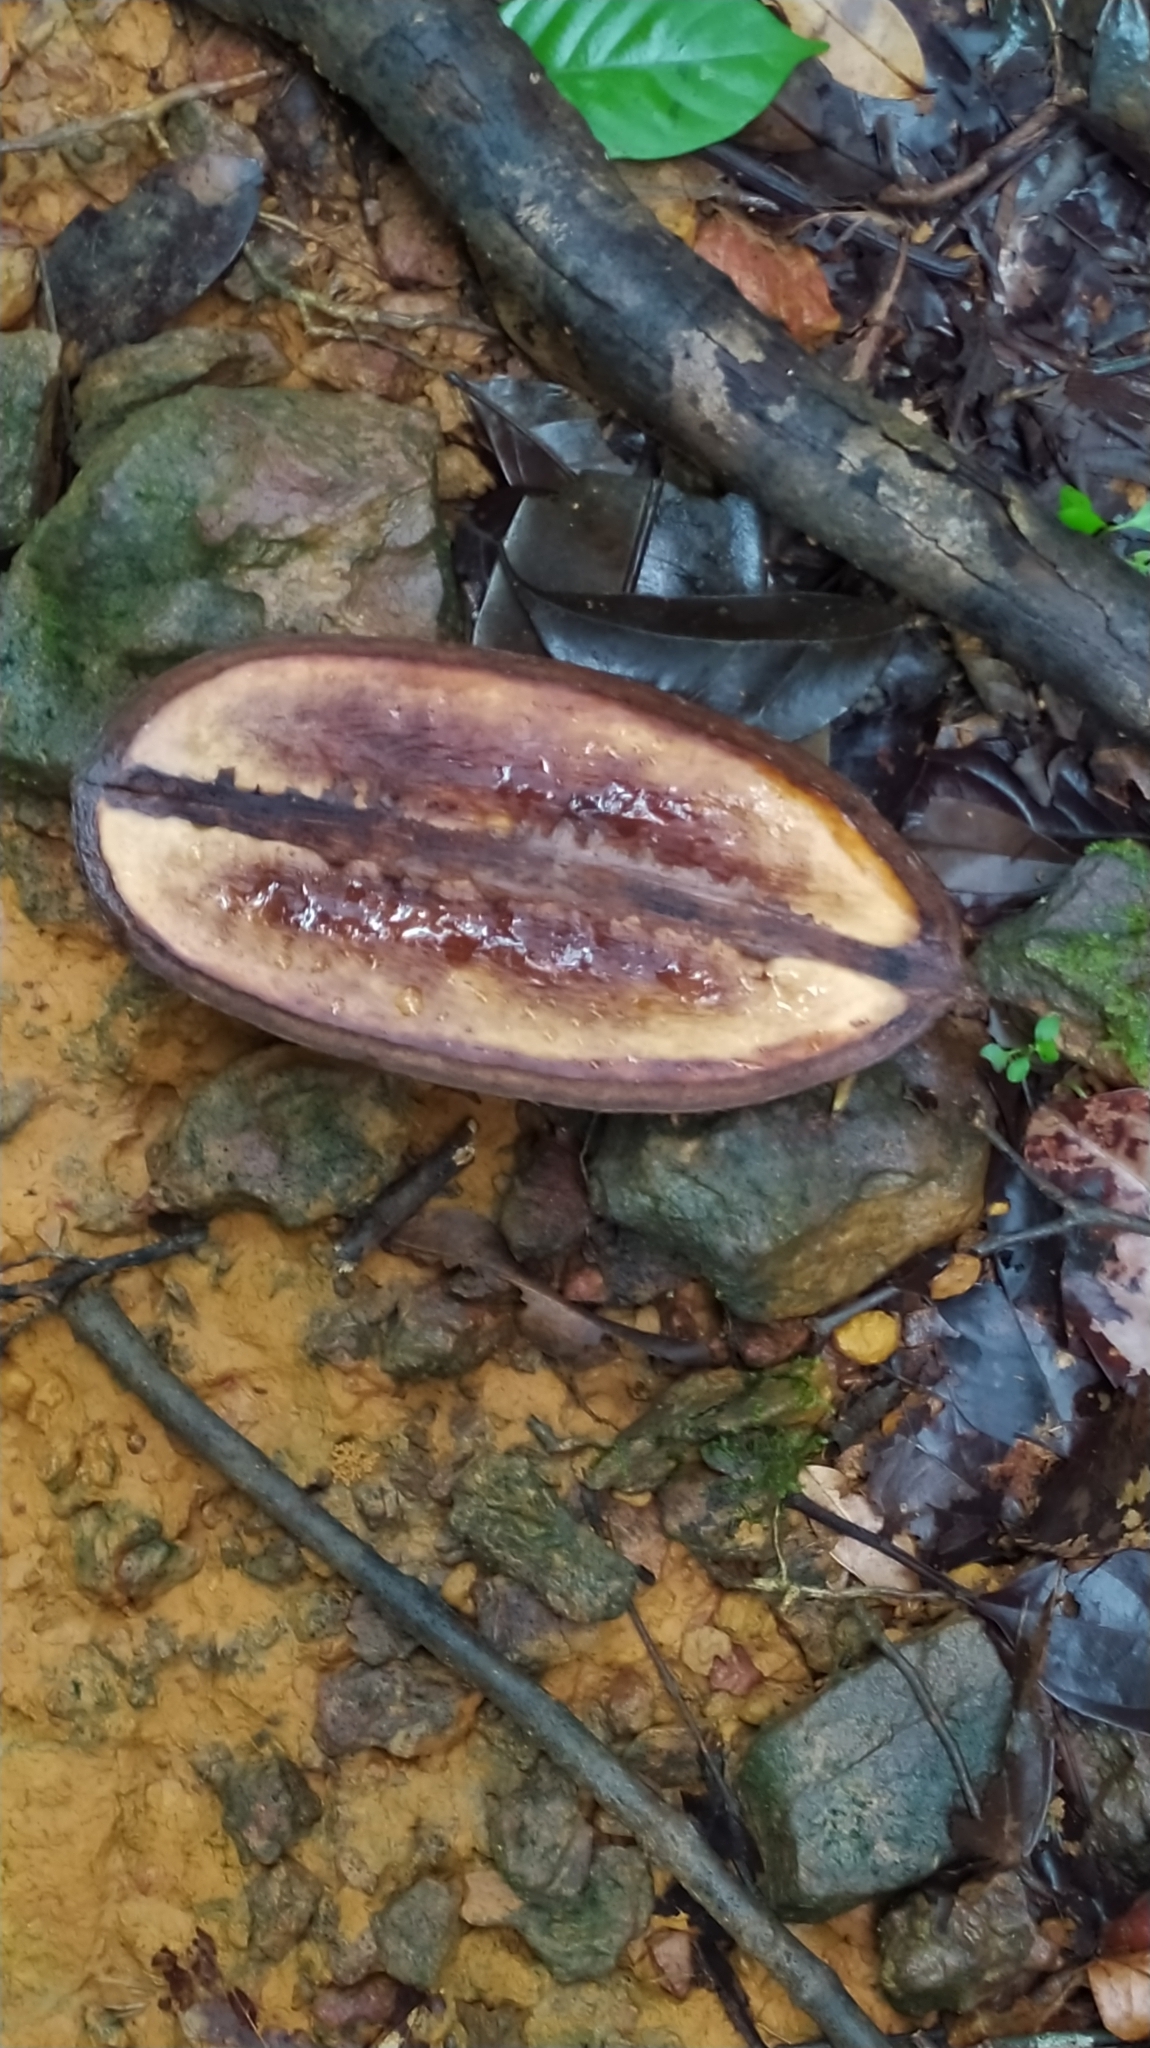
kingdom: Plantae
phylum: Tracheophyta
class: Magnoliopsida
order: Lamiales
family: Bignoniaceae
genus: Jacaranda
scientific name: Jacaranda copaia
